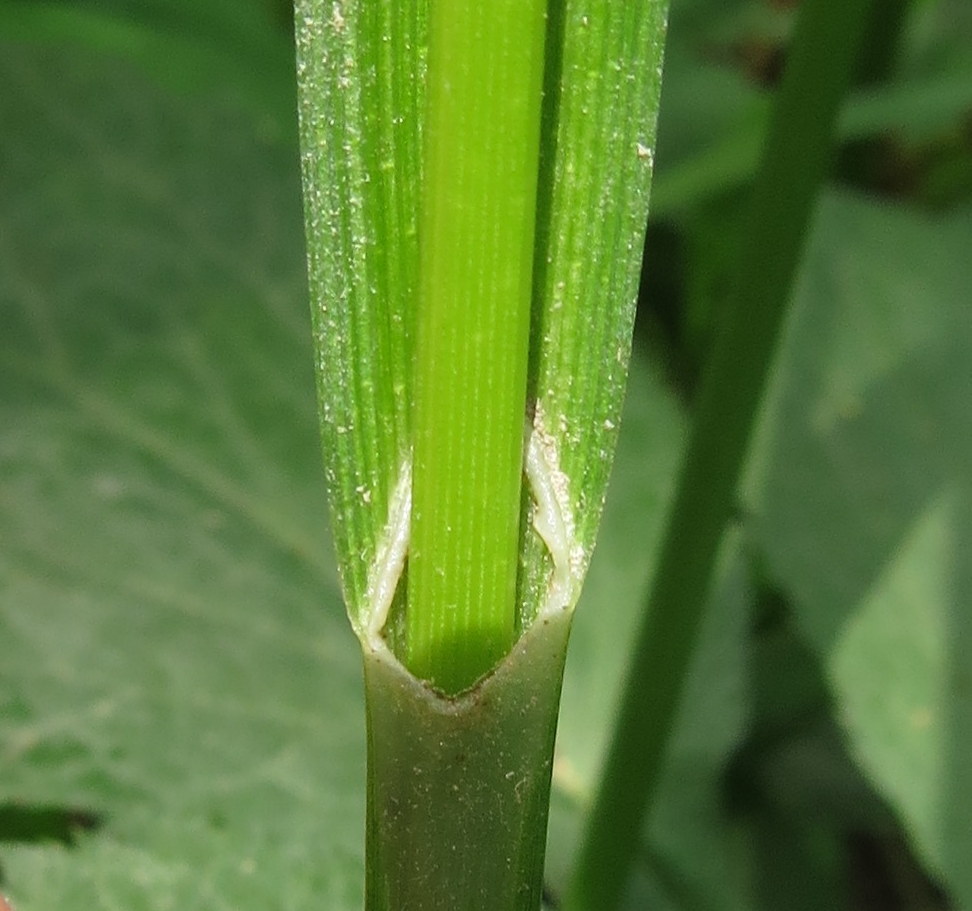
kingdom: Plantae
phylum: Tracheophyta
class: Liliopsida
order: Poales
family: Cyperaceae
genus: Carex
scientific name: Carex grayi
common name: Asa gray's sedge
